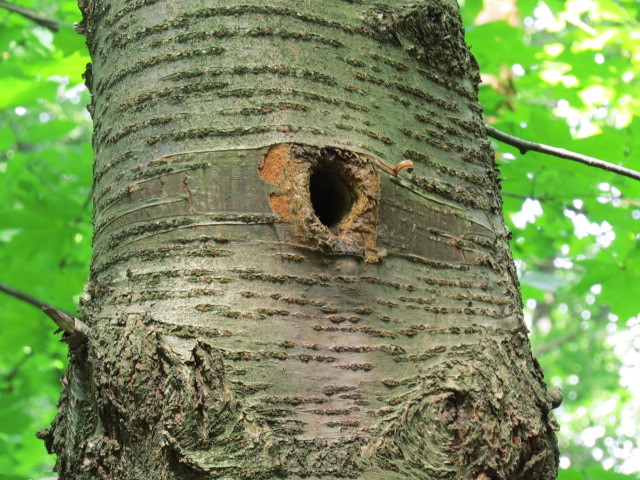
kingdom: Plantae
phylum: Tracheophyta
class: Magnoliopsida
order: Rosales
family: Rosaceae
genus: Prunus
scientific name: Prunus avium
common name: Sweet cherry
